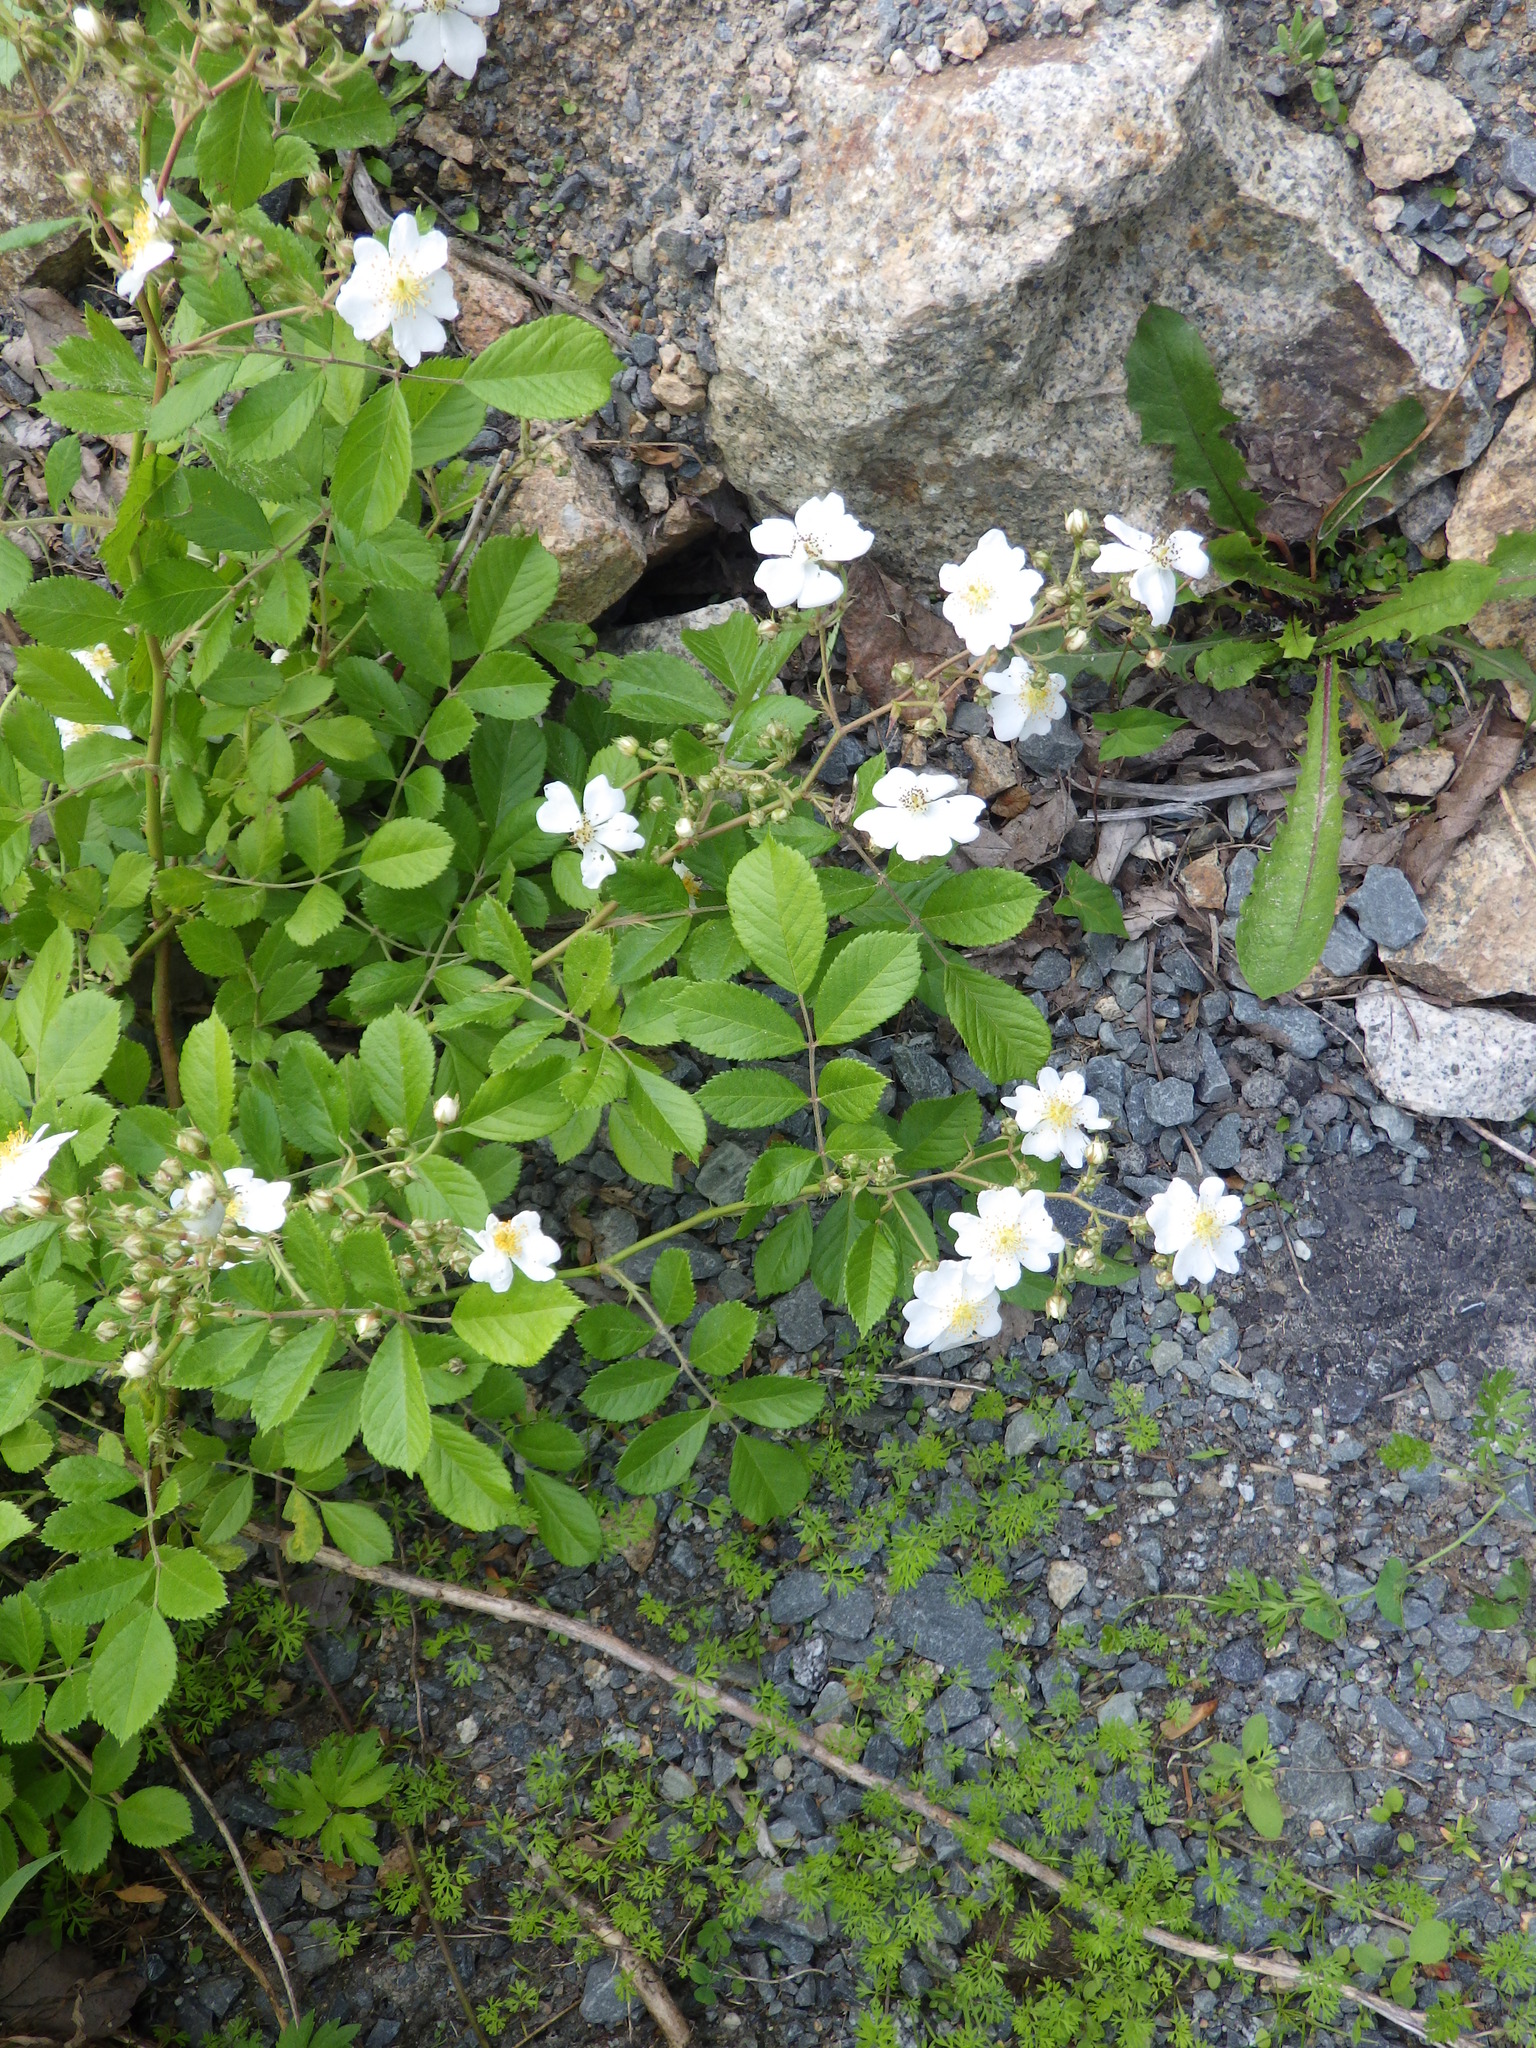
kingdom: Plantae
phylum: Tracheophyta
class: Magnoliopsida
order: Rosales
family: Rosaceae
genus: Rosa
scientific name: Rosa multiflora
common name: Multiflora rose
